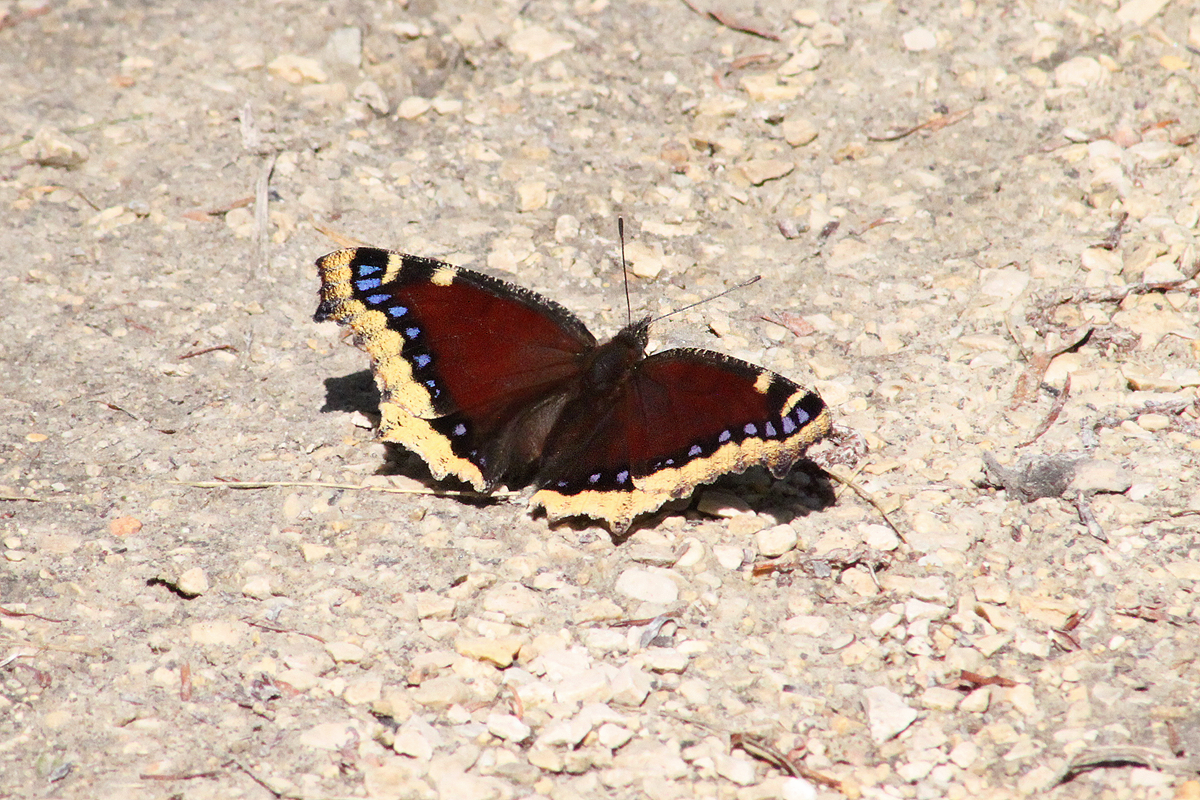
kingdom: Animalia
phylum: Arthropoda
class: Insecta
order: Lepidoptera
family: Nymphalidae
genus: Nymphalis
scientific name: Nymphalis antiopa
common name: Camberwell beauty
